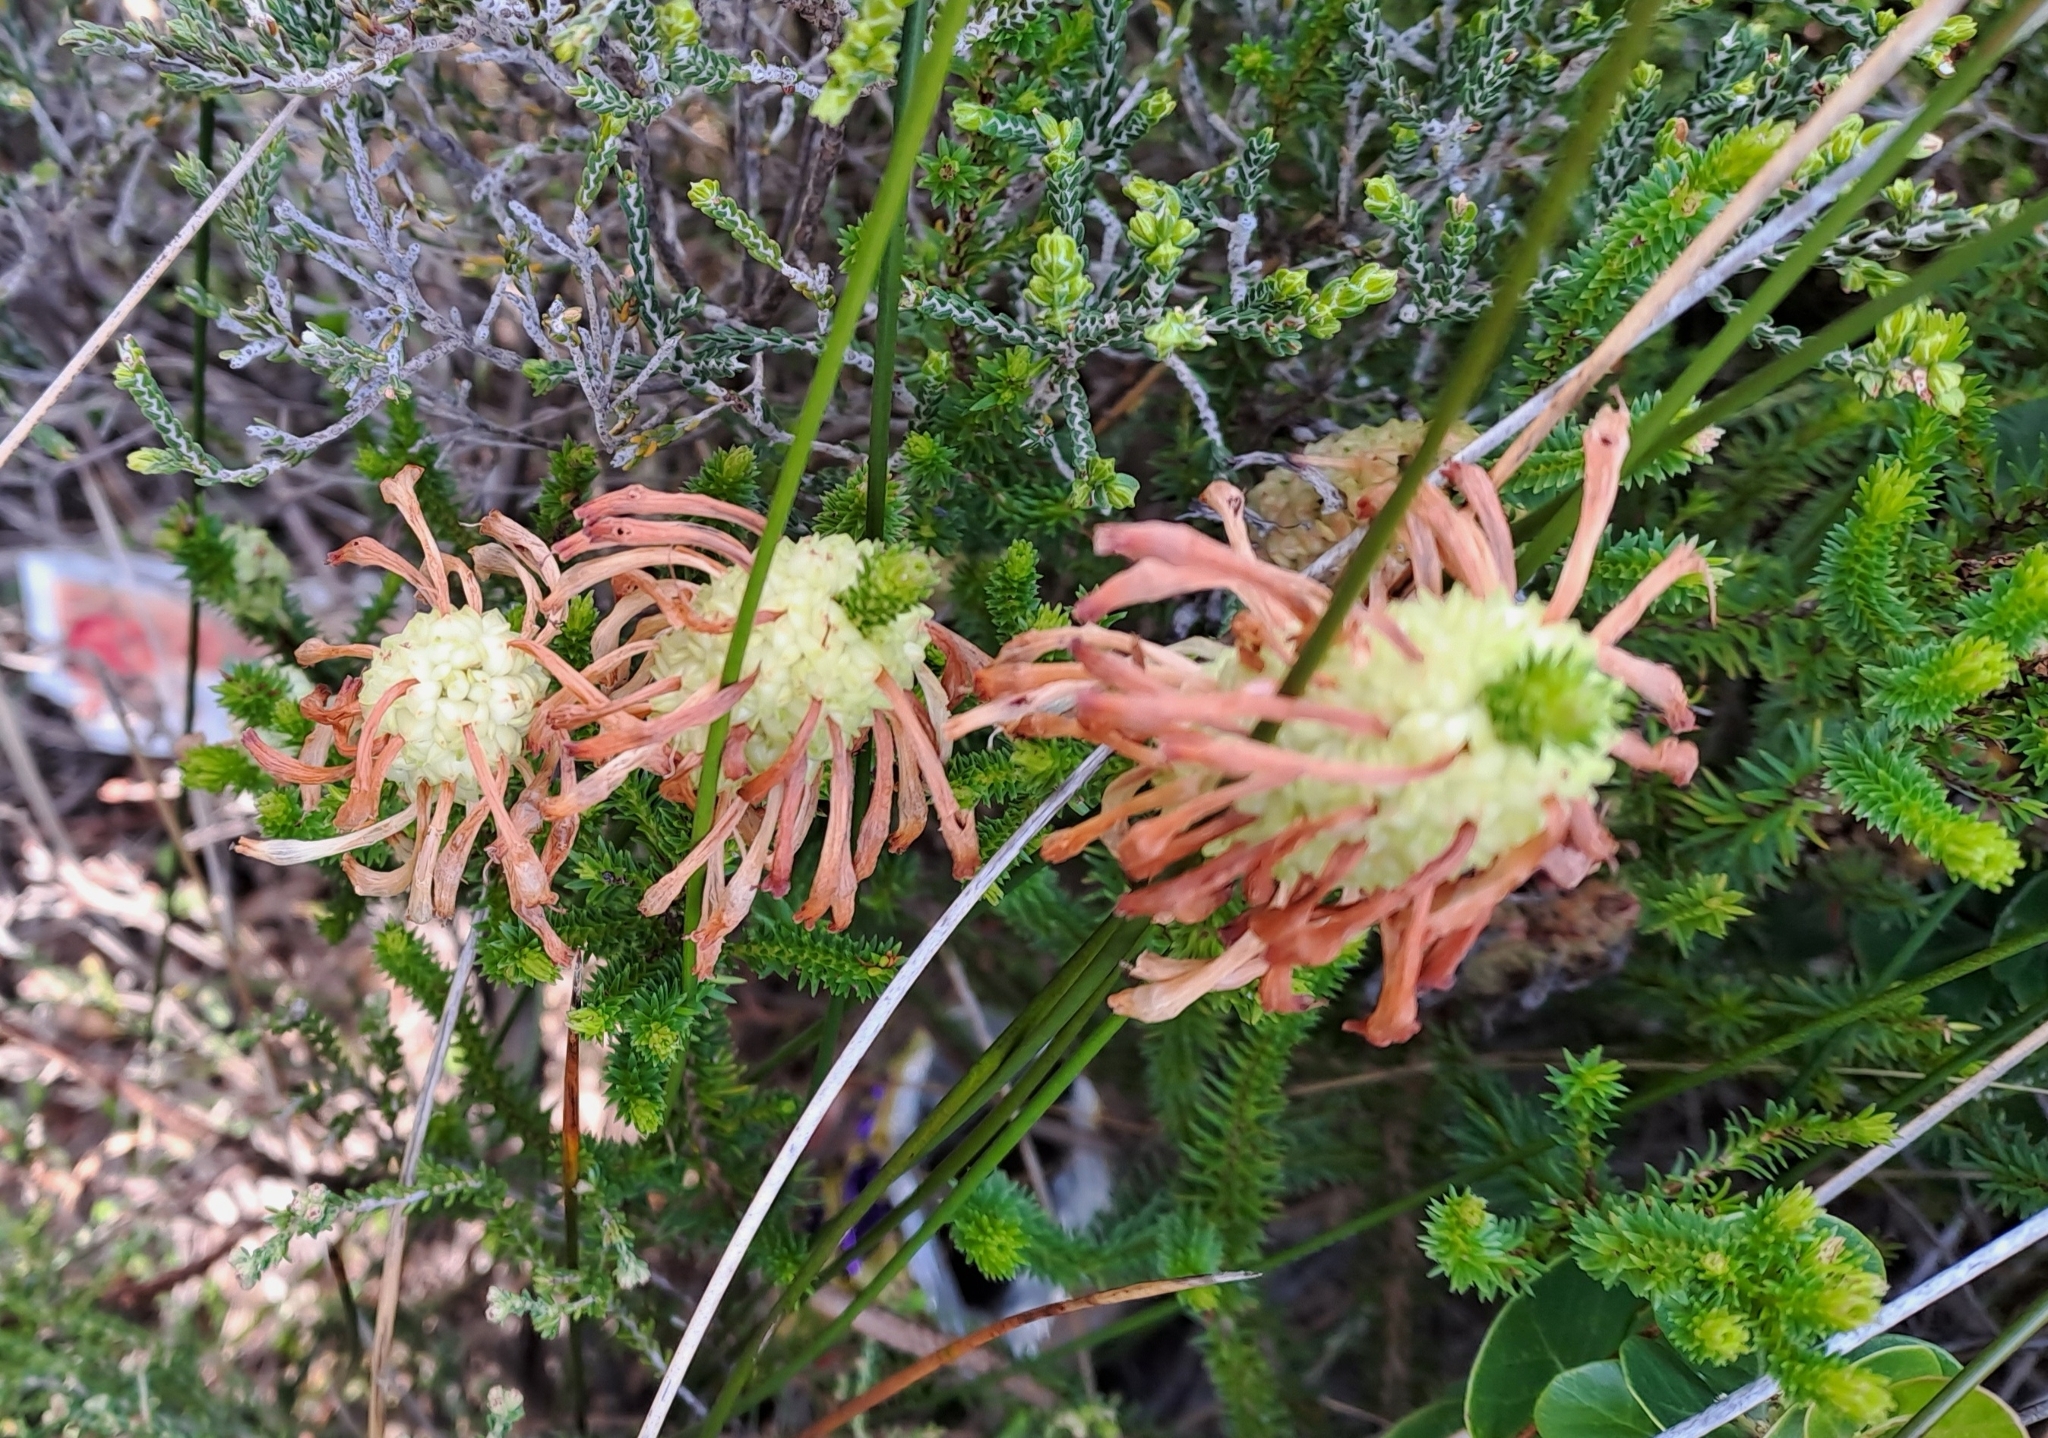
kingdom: Plantae
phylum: Tracheophyta
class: Magnoliopsida
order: Ericales
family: Ericaceae
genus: Erica
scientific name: Erica sessiliflora
